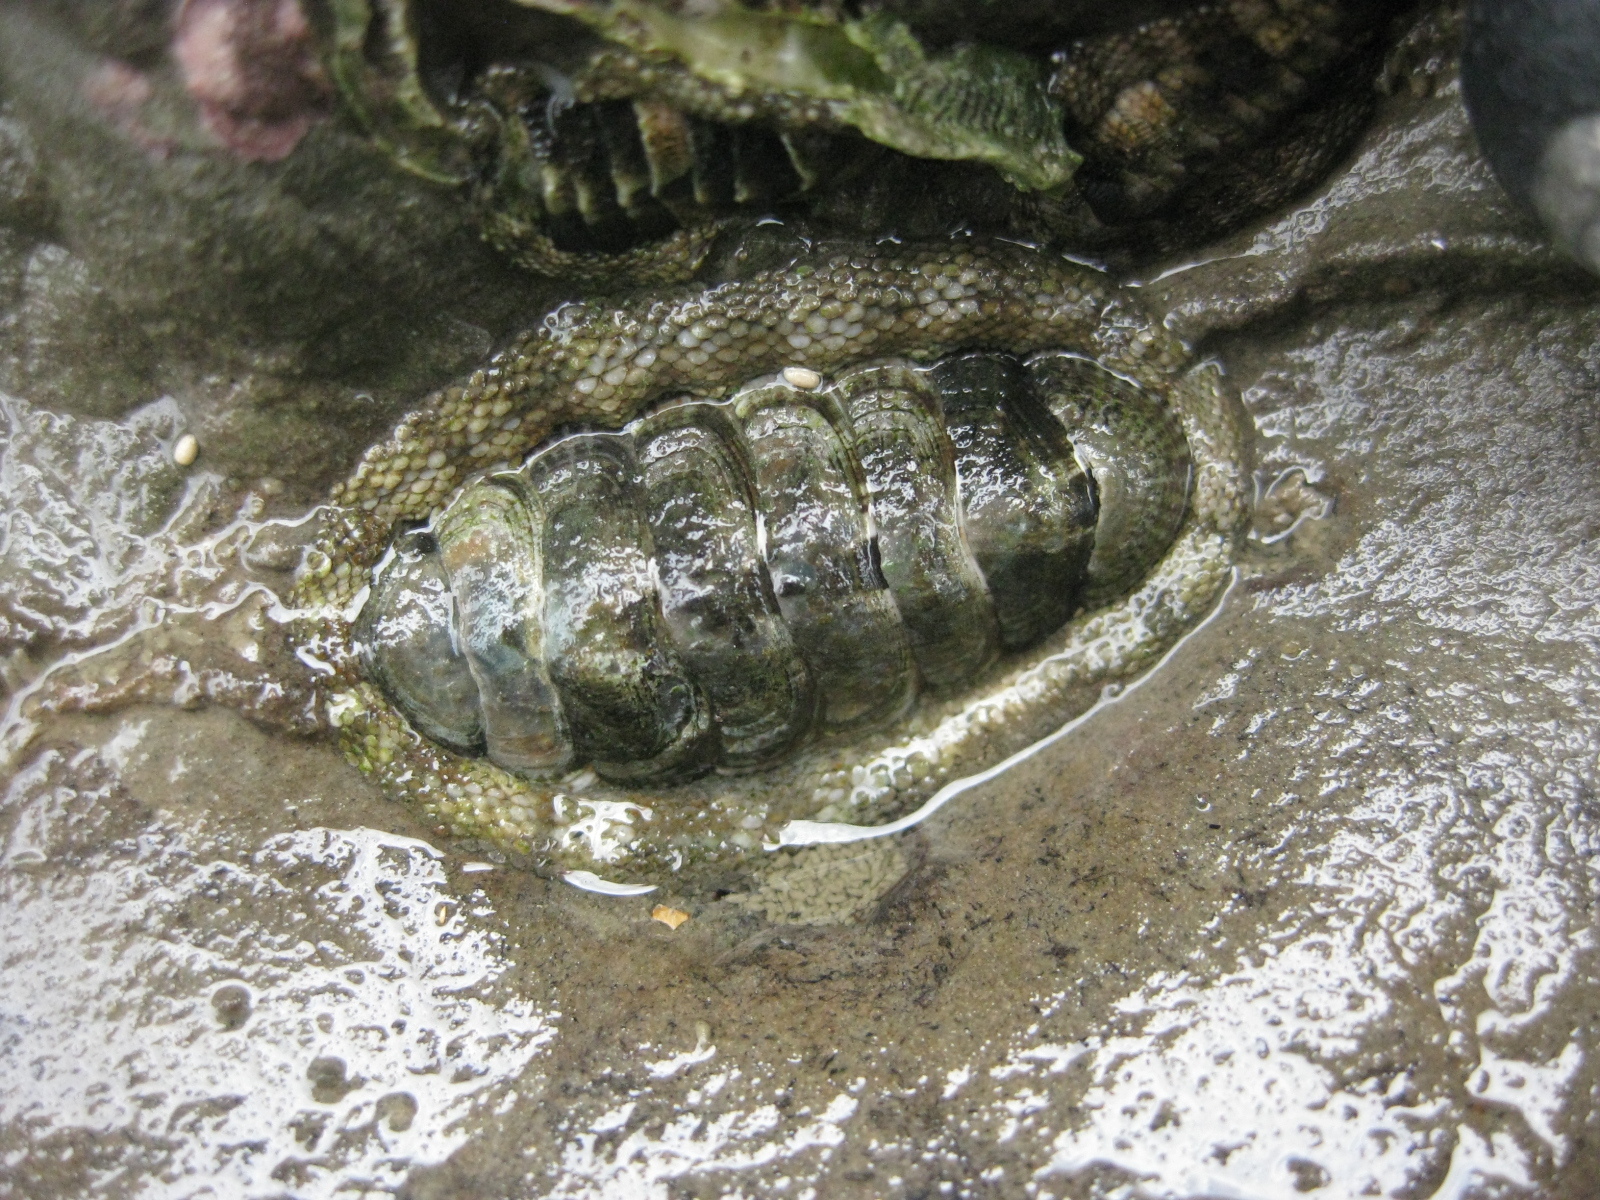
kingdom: Animalia
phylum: Mollusca
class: Polyplacophora
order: Chitonida
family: Chitonidae
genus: Sypharochiton
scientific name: Sypharochiton pelliserpentis
